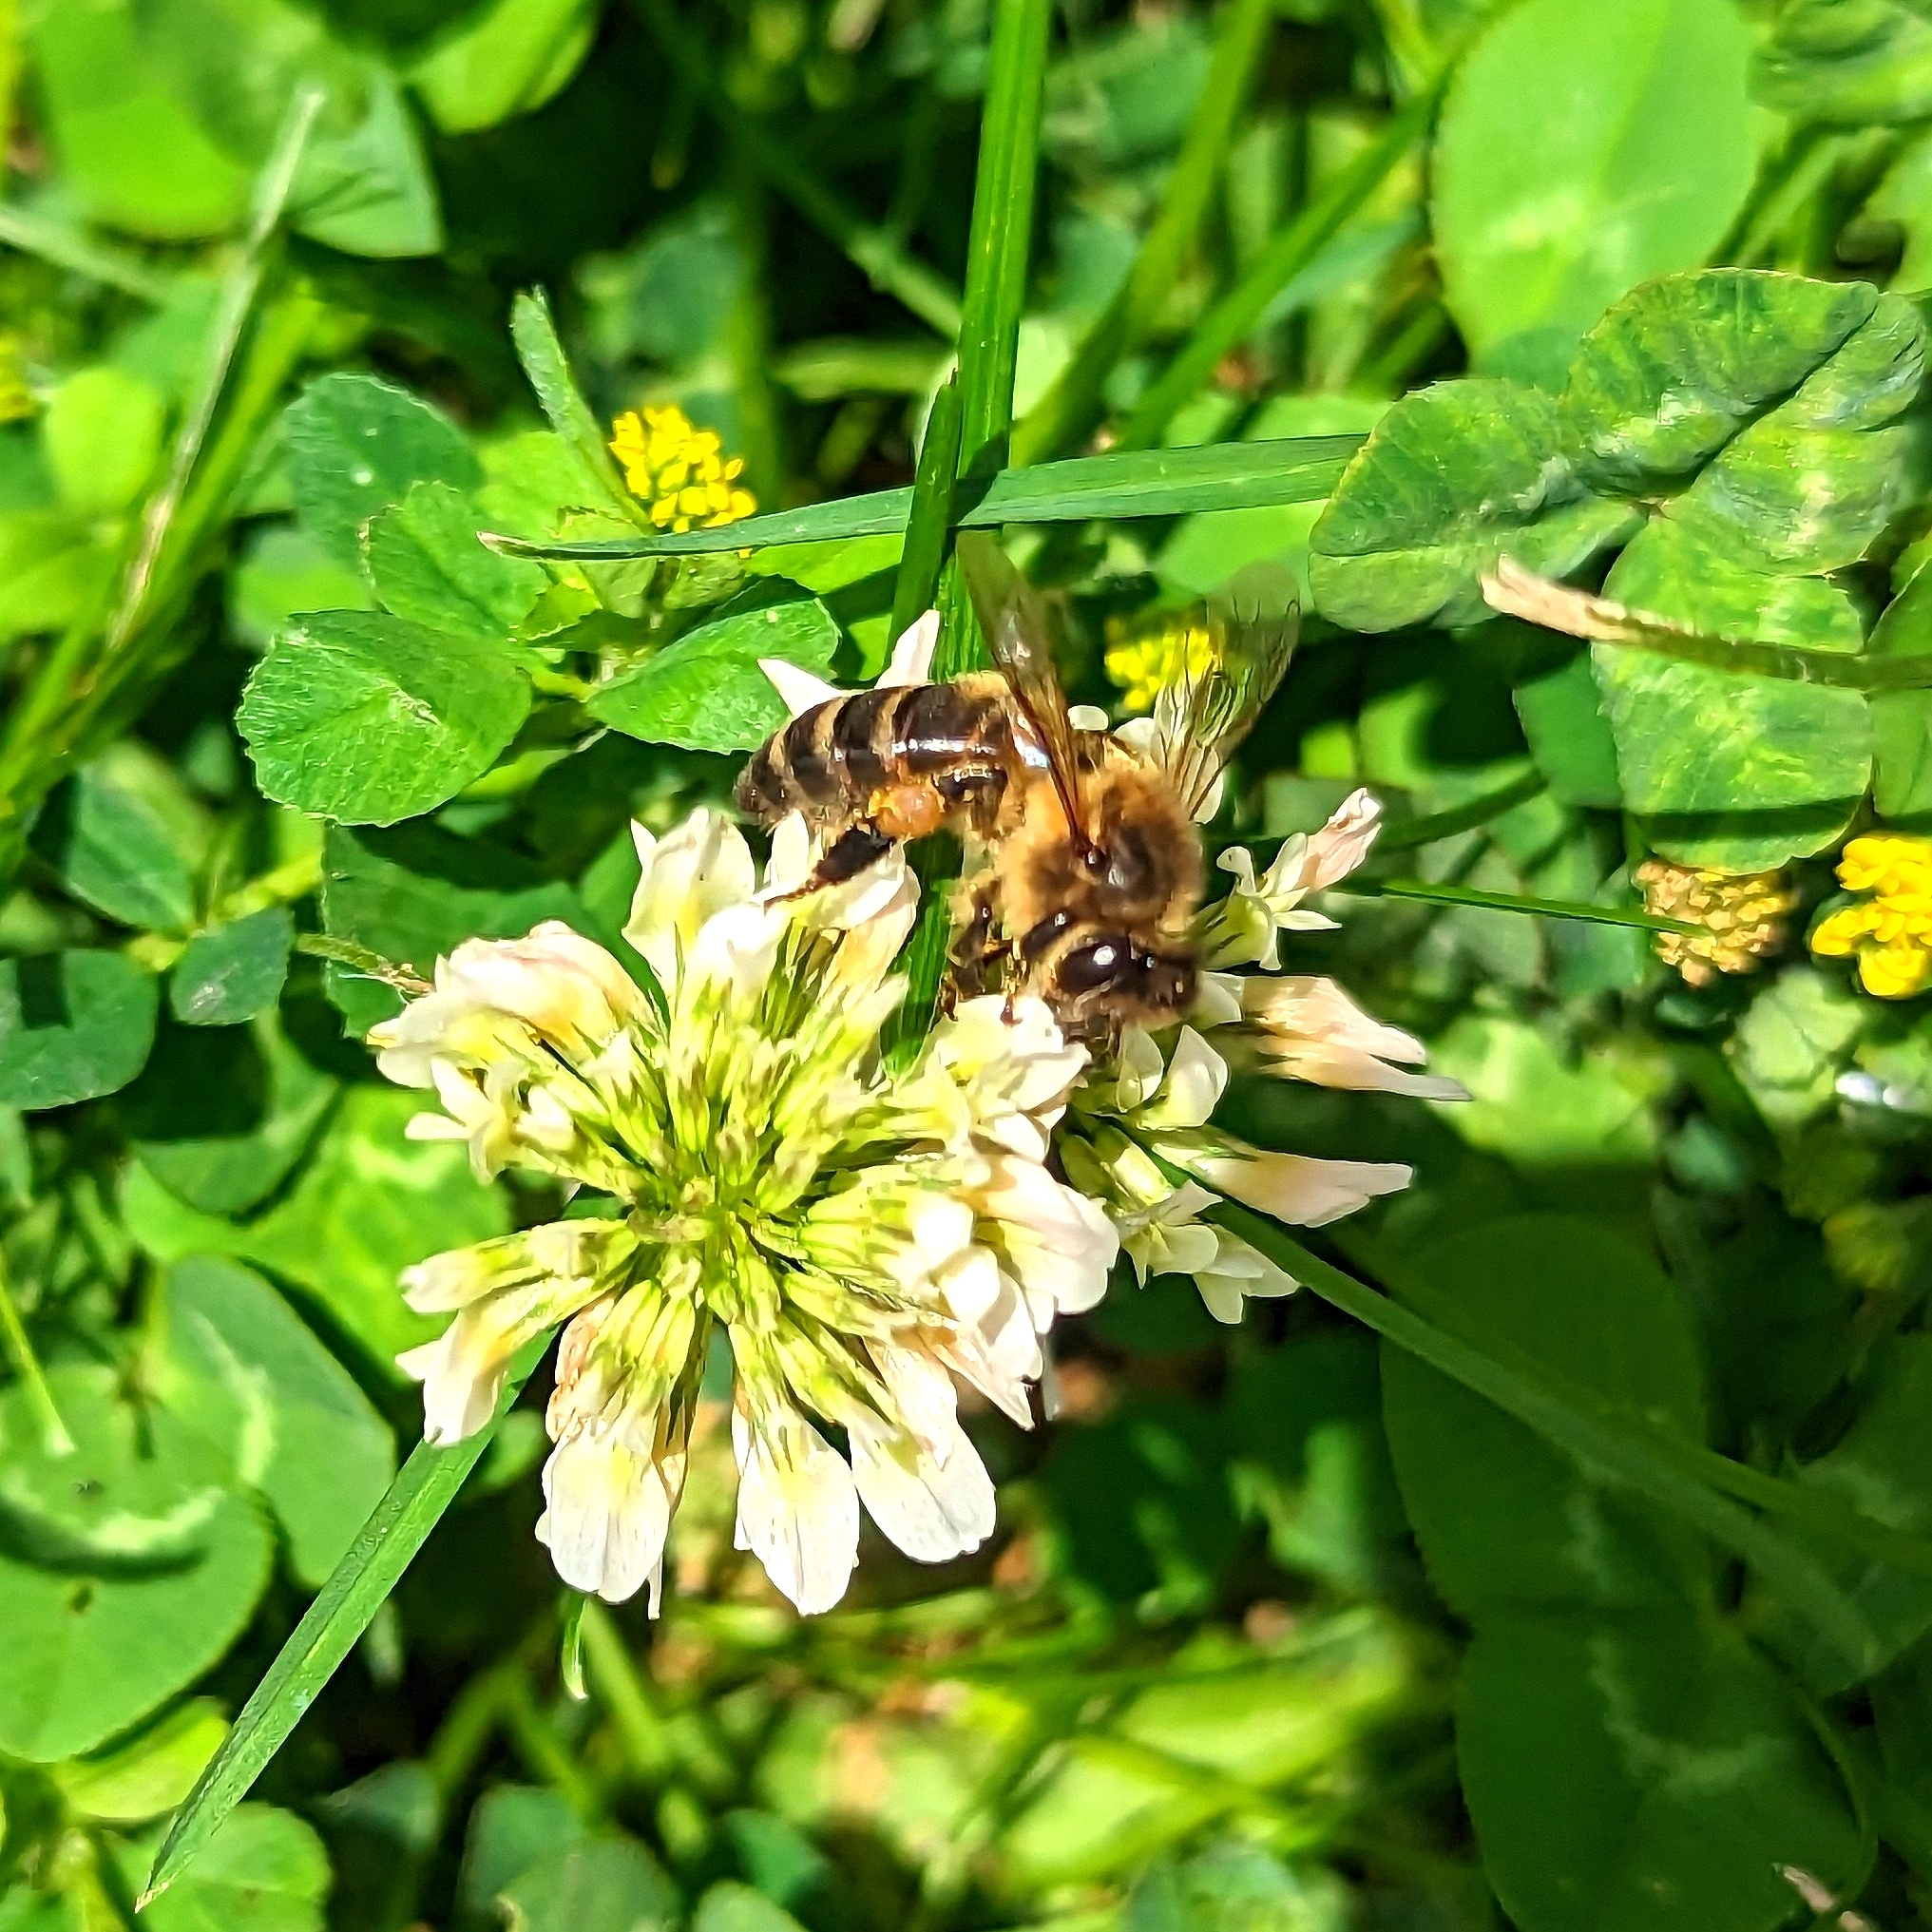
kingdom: Animalia
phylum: Arthropoda
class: Insecta
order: Hymenoptera
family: Apidae
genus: Apis
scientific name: Apis mellifera
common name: Honey bee
